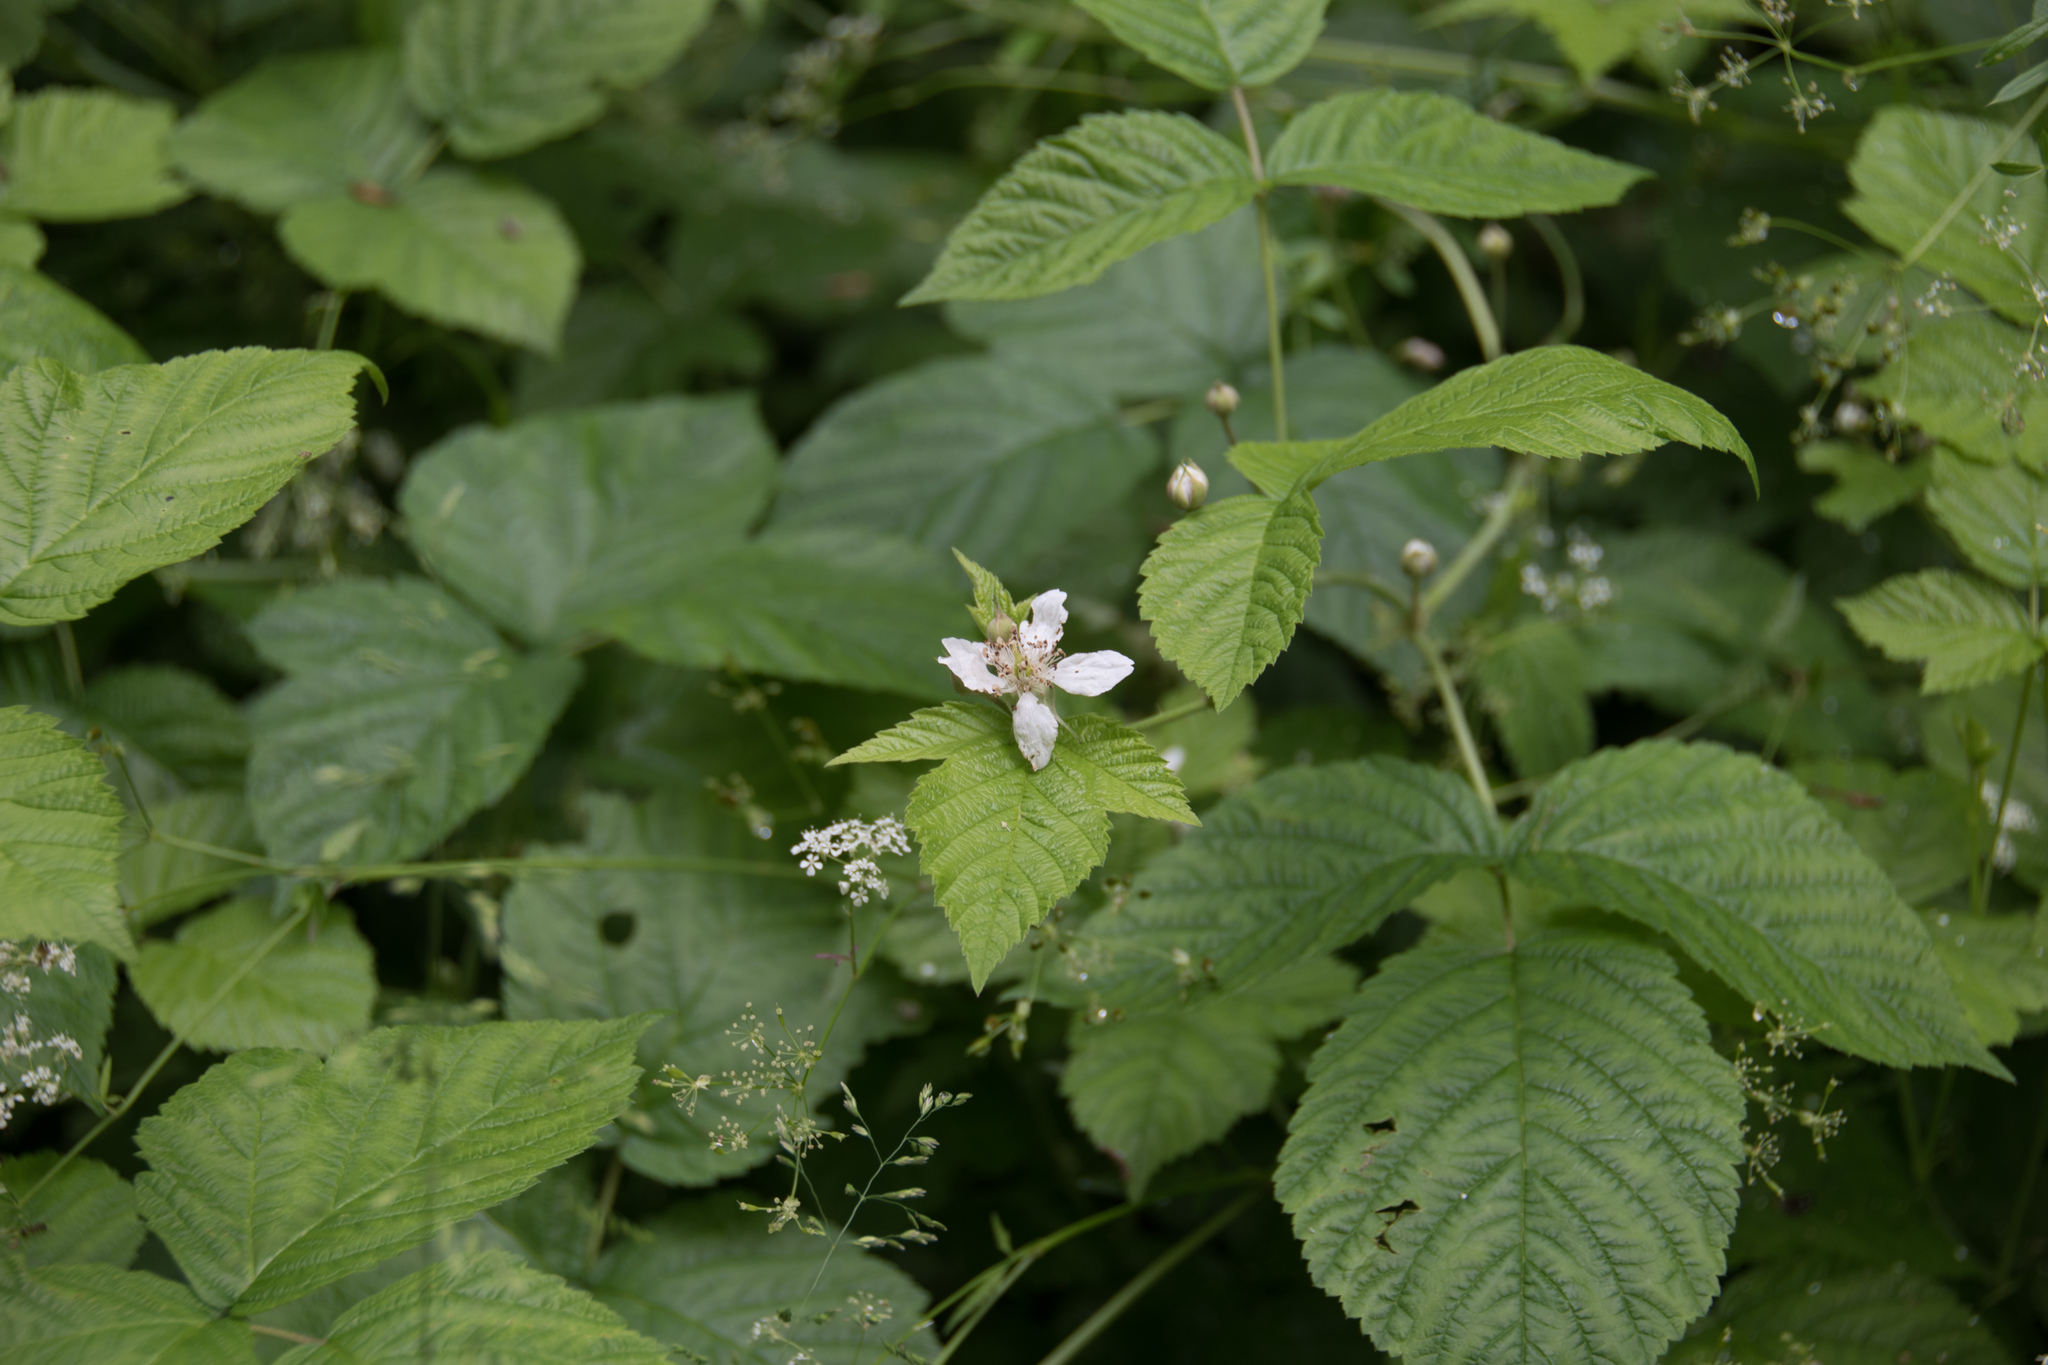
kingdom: Plantae
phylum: Tracheophyta
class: Magnoliopsida
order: Rosales
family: Rosaceae
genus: Rubus
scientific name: Rubus idaeus
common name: Raspberry
